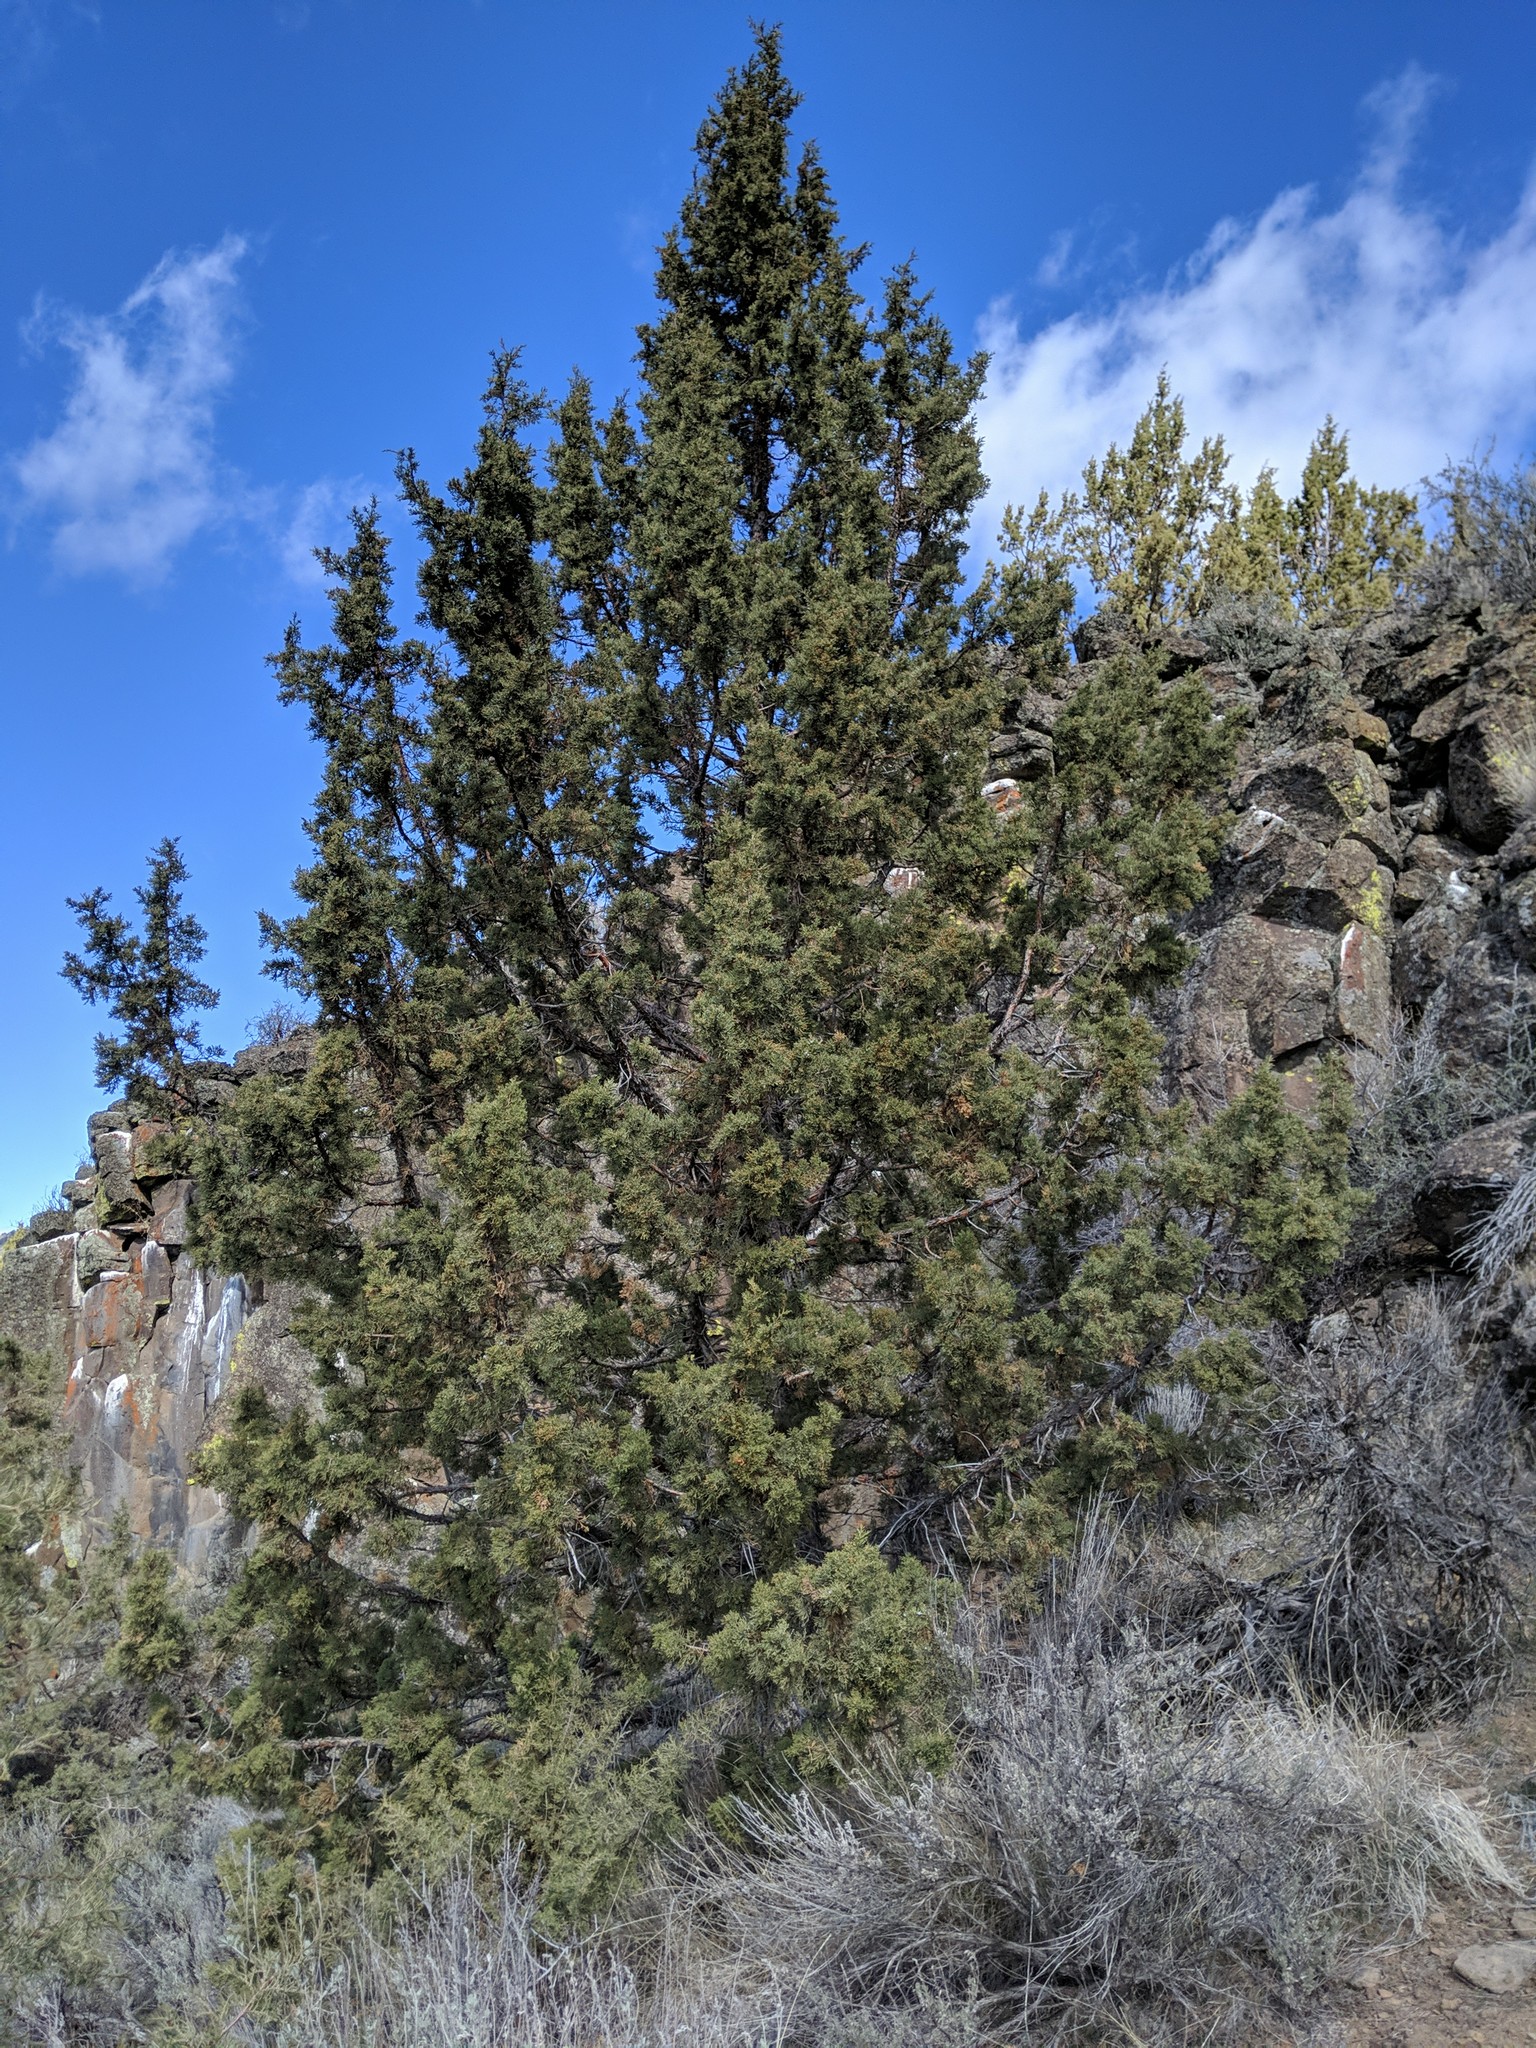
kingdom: Plantae
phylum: Tracheophyta
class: Pinopsida
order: Pinales
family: Cupressaceae
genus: Juniperus
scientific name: Juniperus occidentalis
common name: Western juniper
